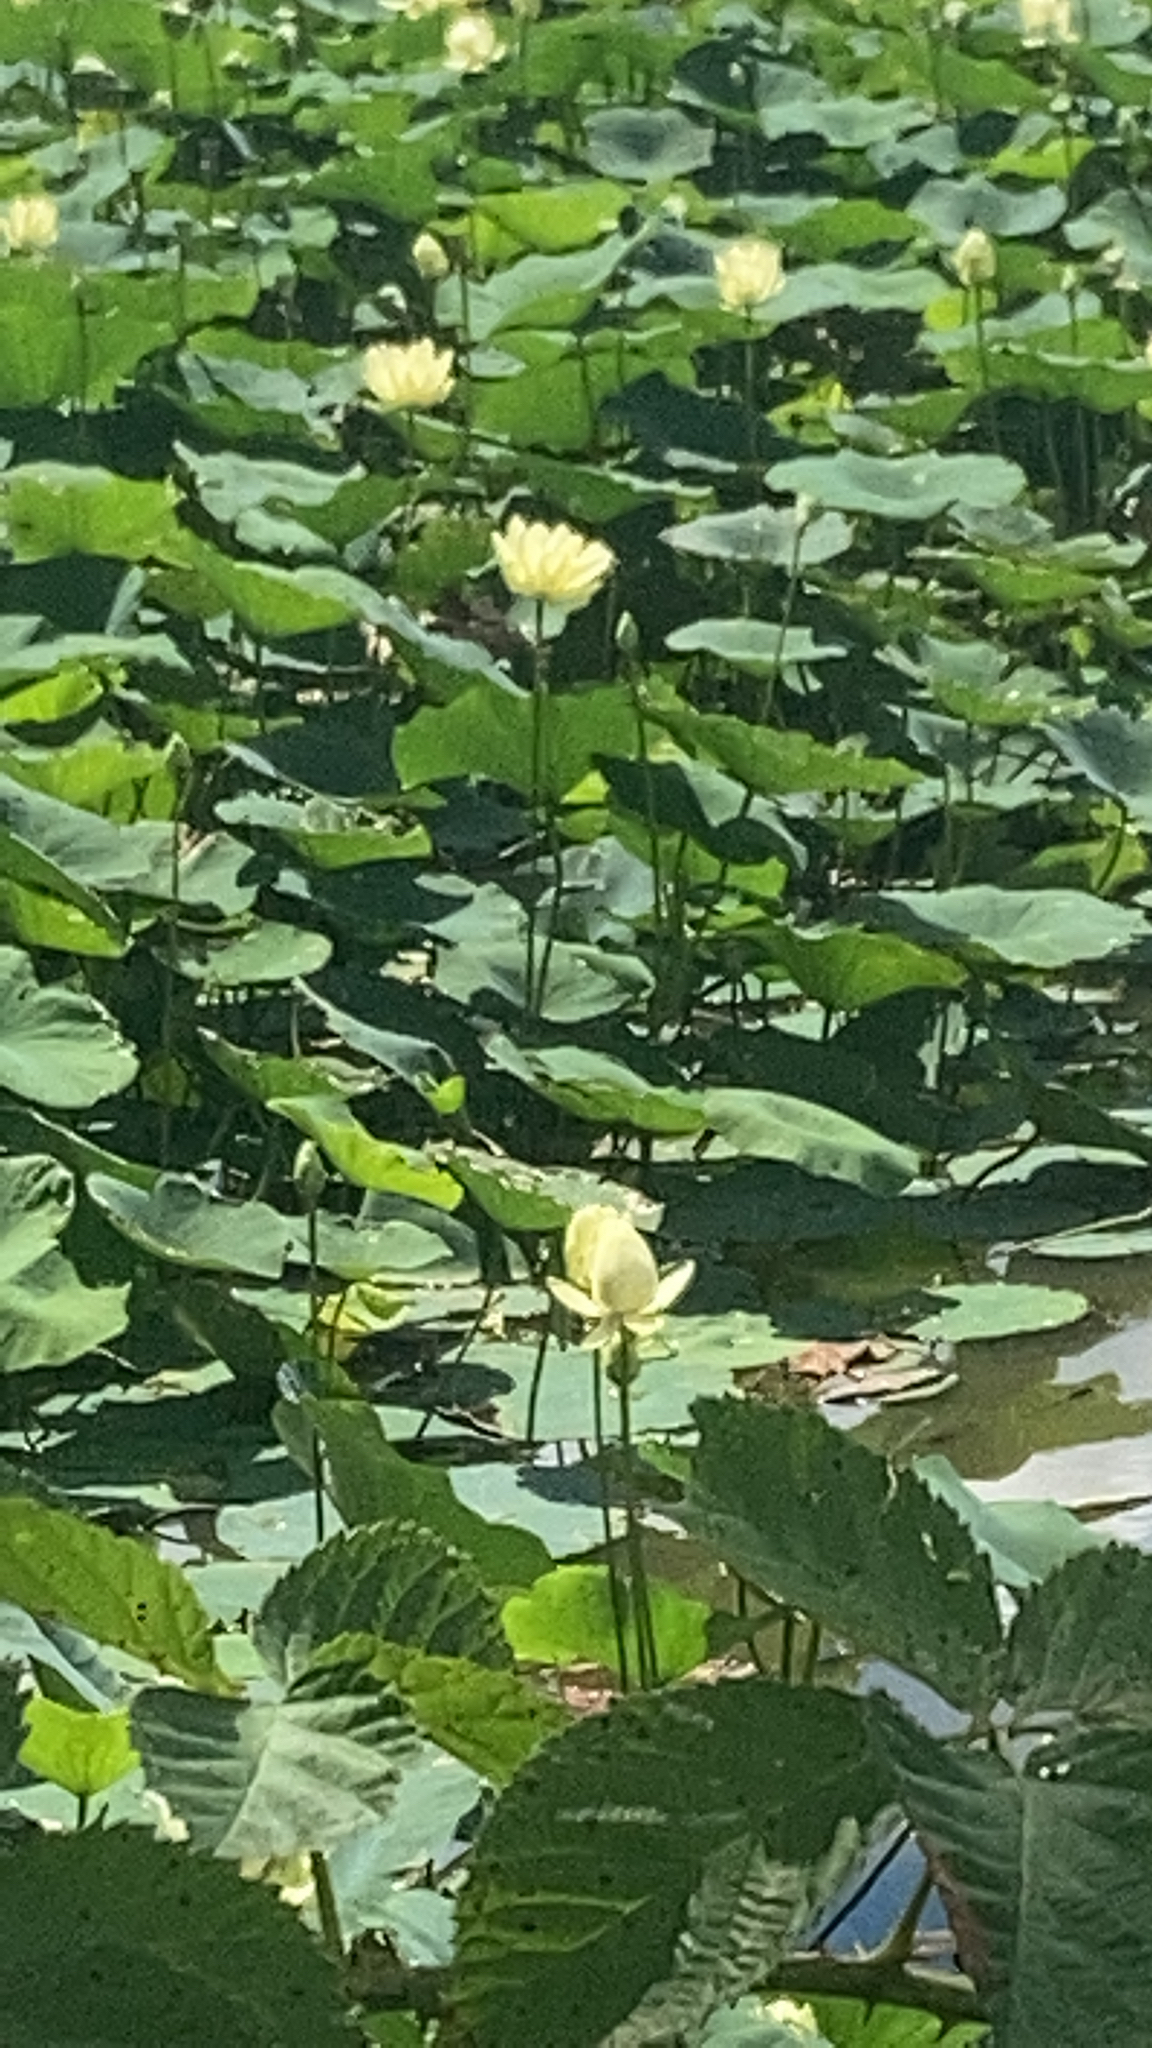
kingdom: Plantae
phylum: Tracheophyta
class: Magnoliopsida
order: Proteales
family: Nelumbonaceae
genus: Nelumbo
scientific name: Nelumbo lutea
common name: American lotus
